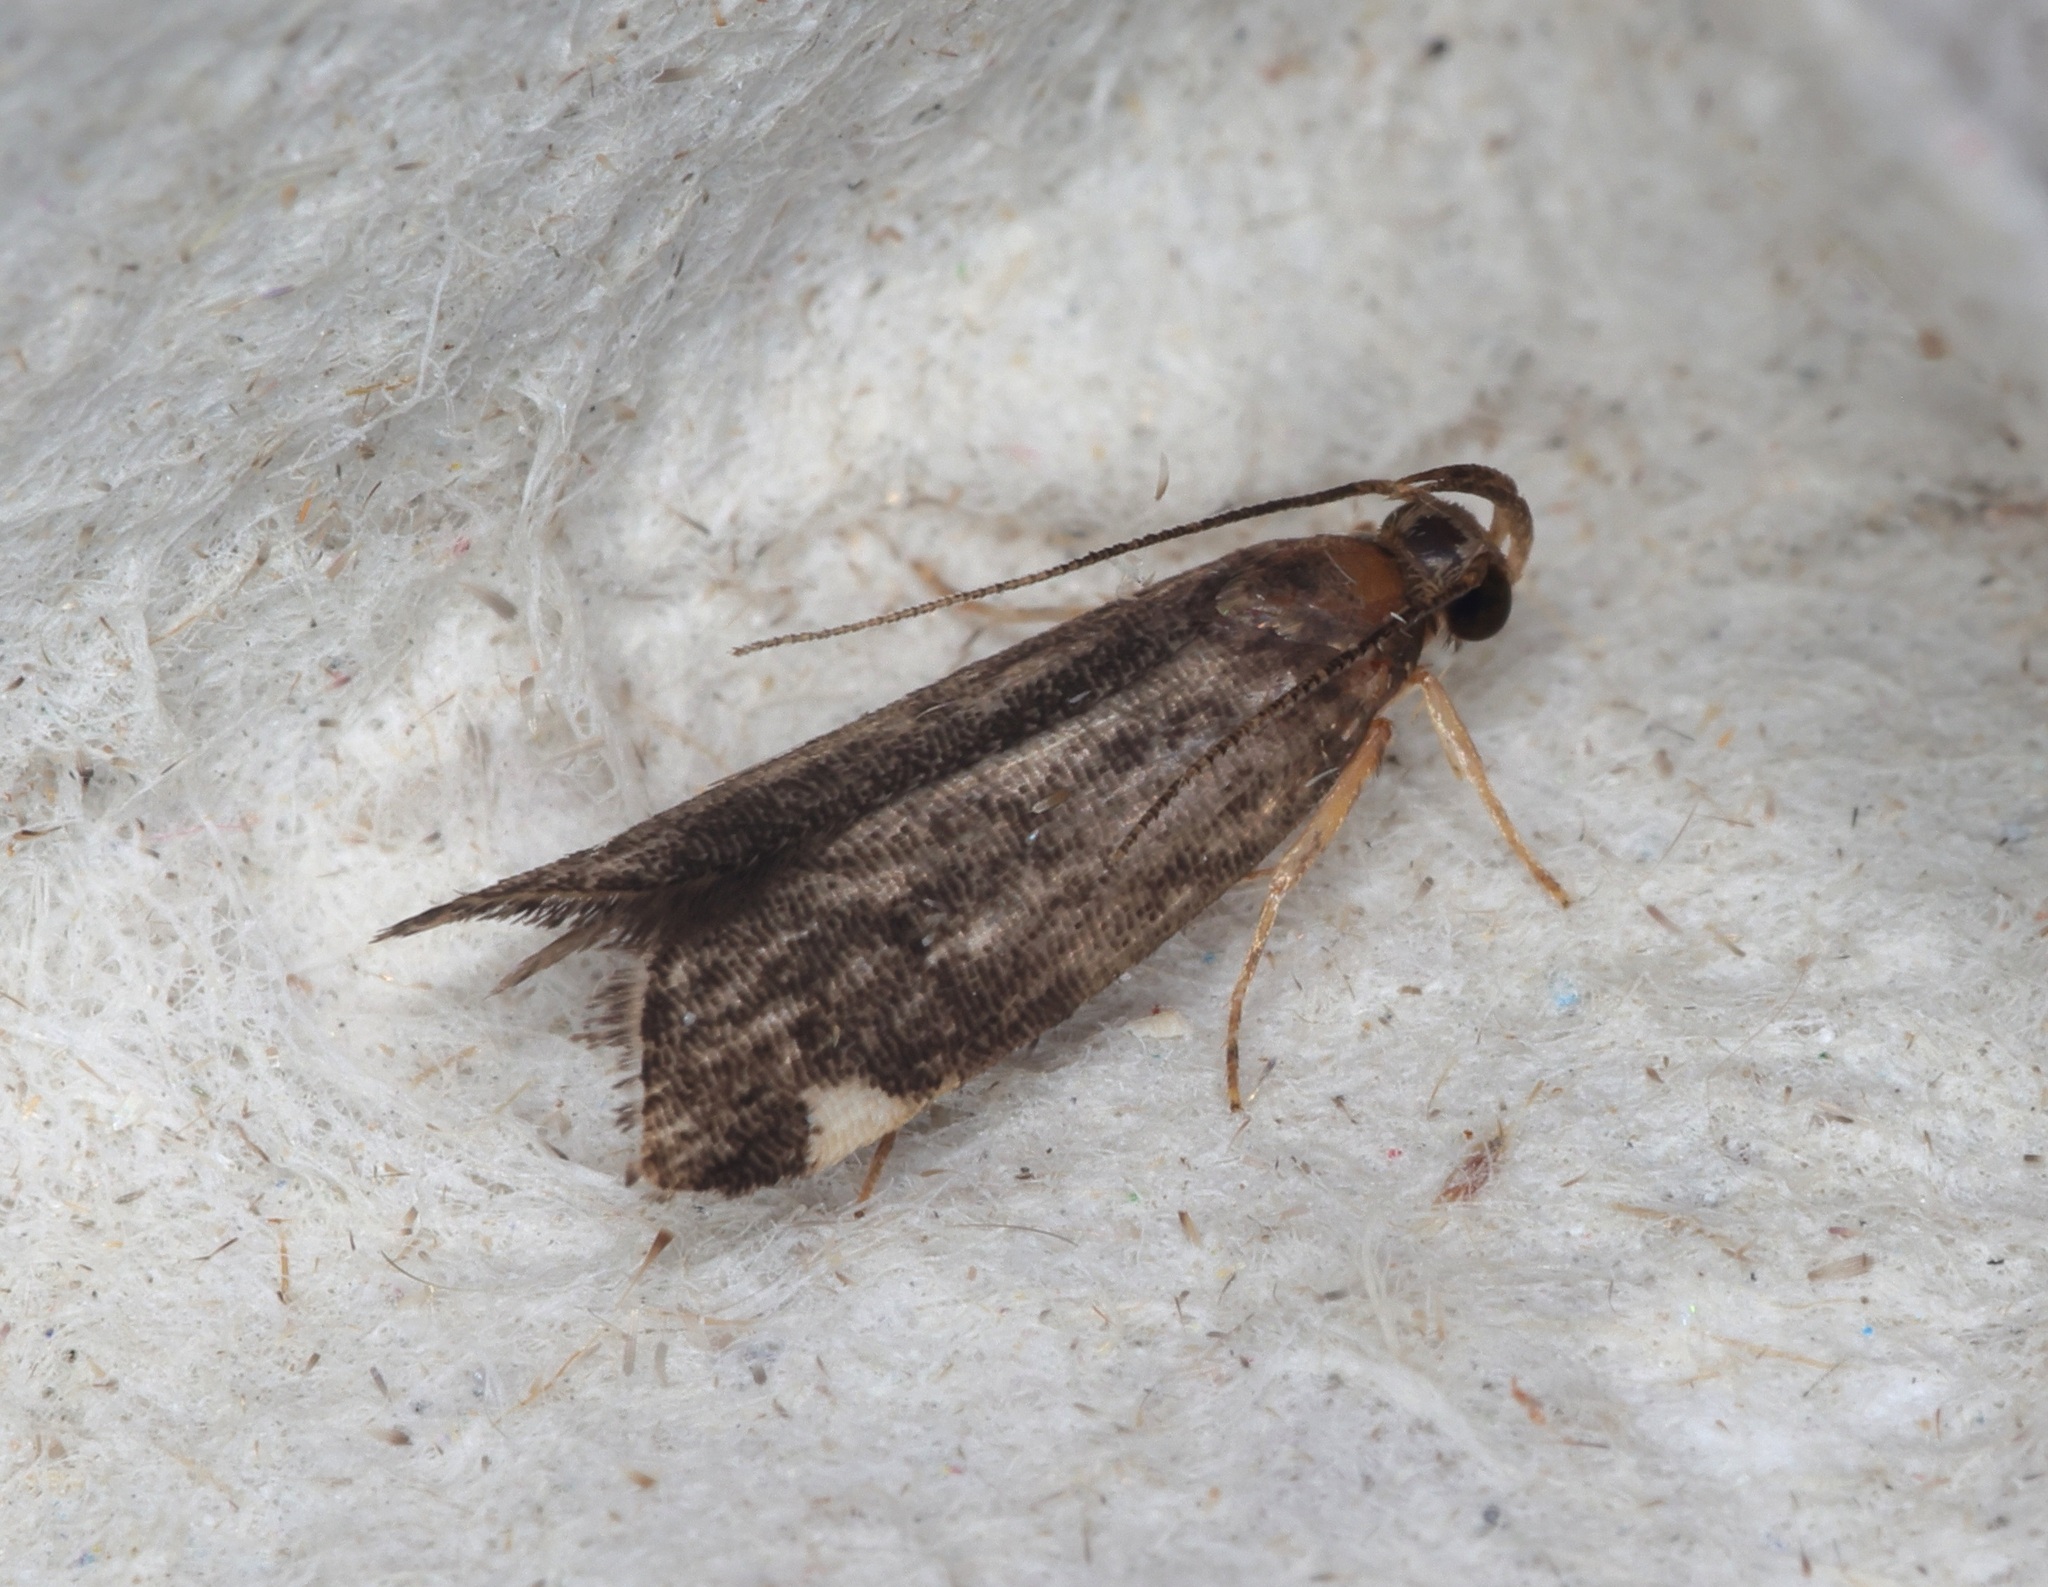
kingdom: Animalia
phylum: Arthropoda
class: Insecta
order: Lepidoptera
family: Autostichidae
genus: Ripeacma
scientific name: Ripeacma umbellata
